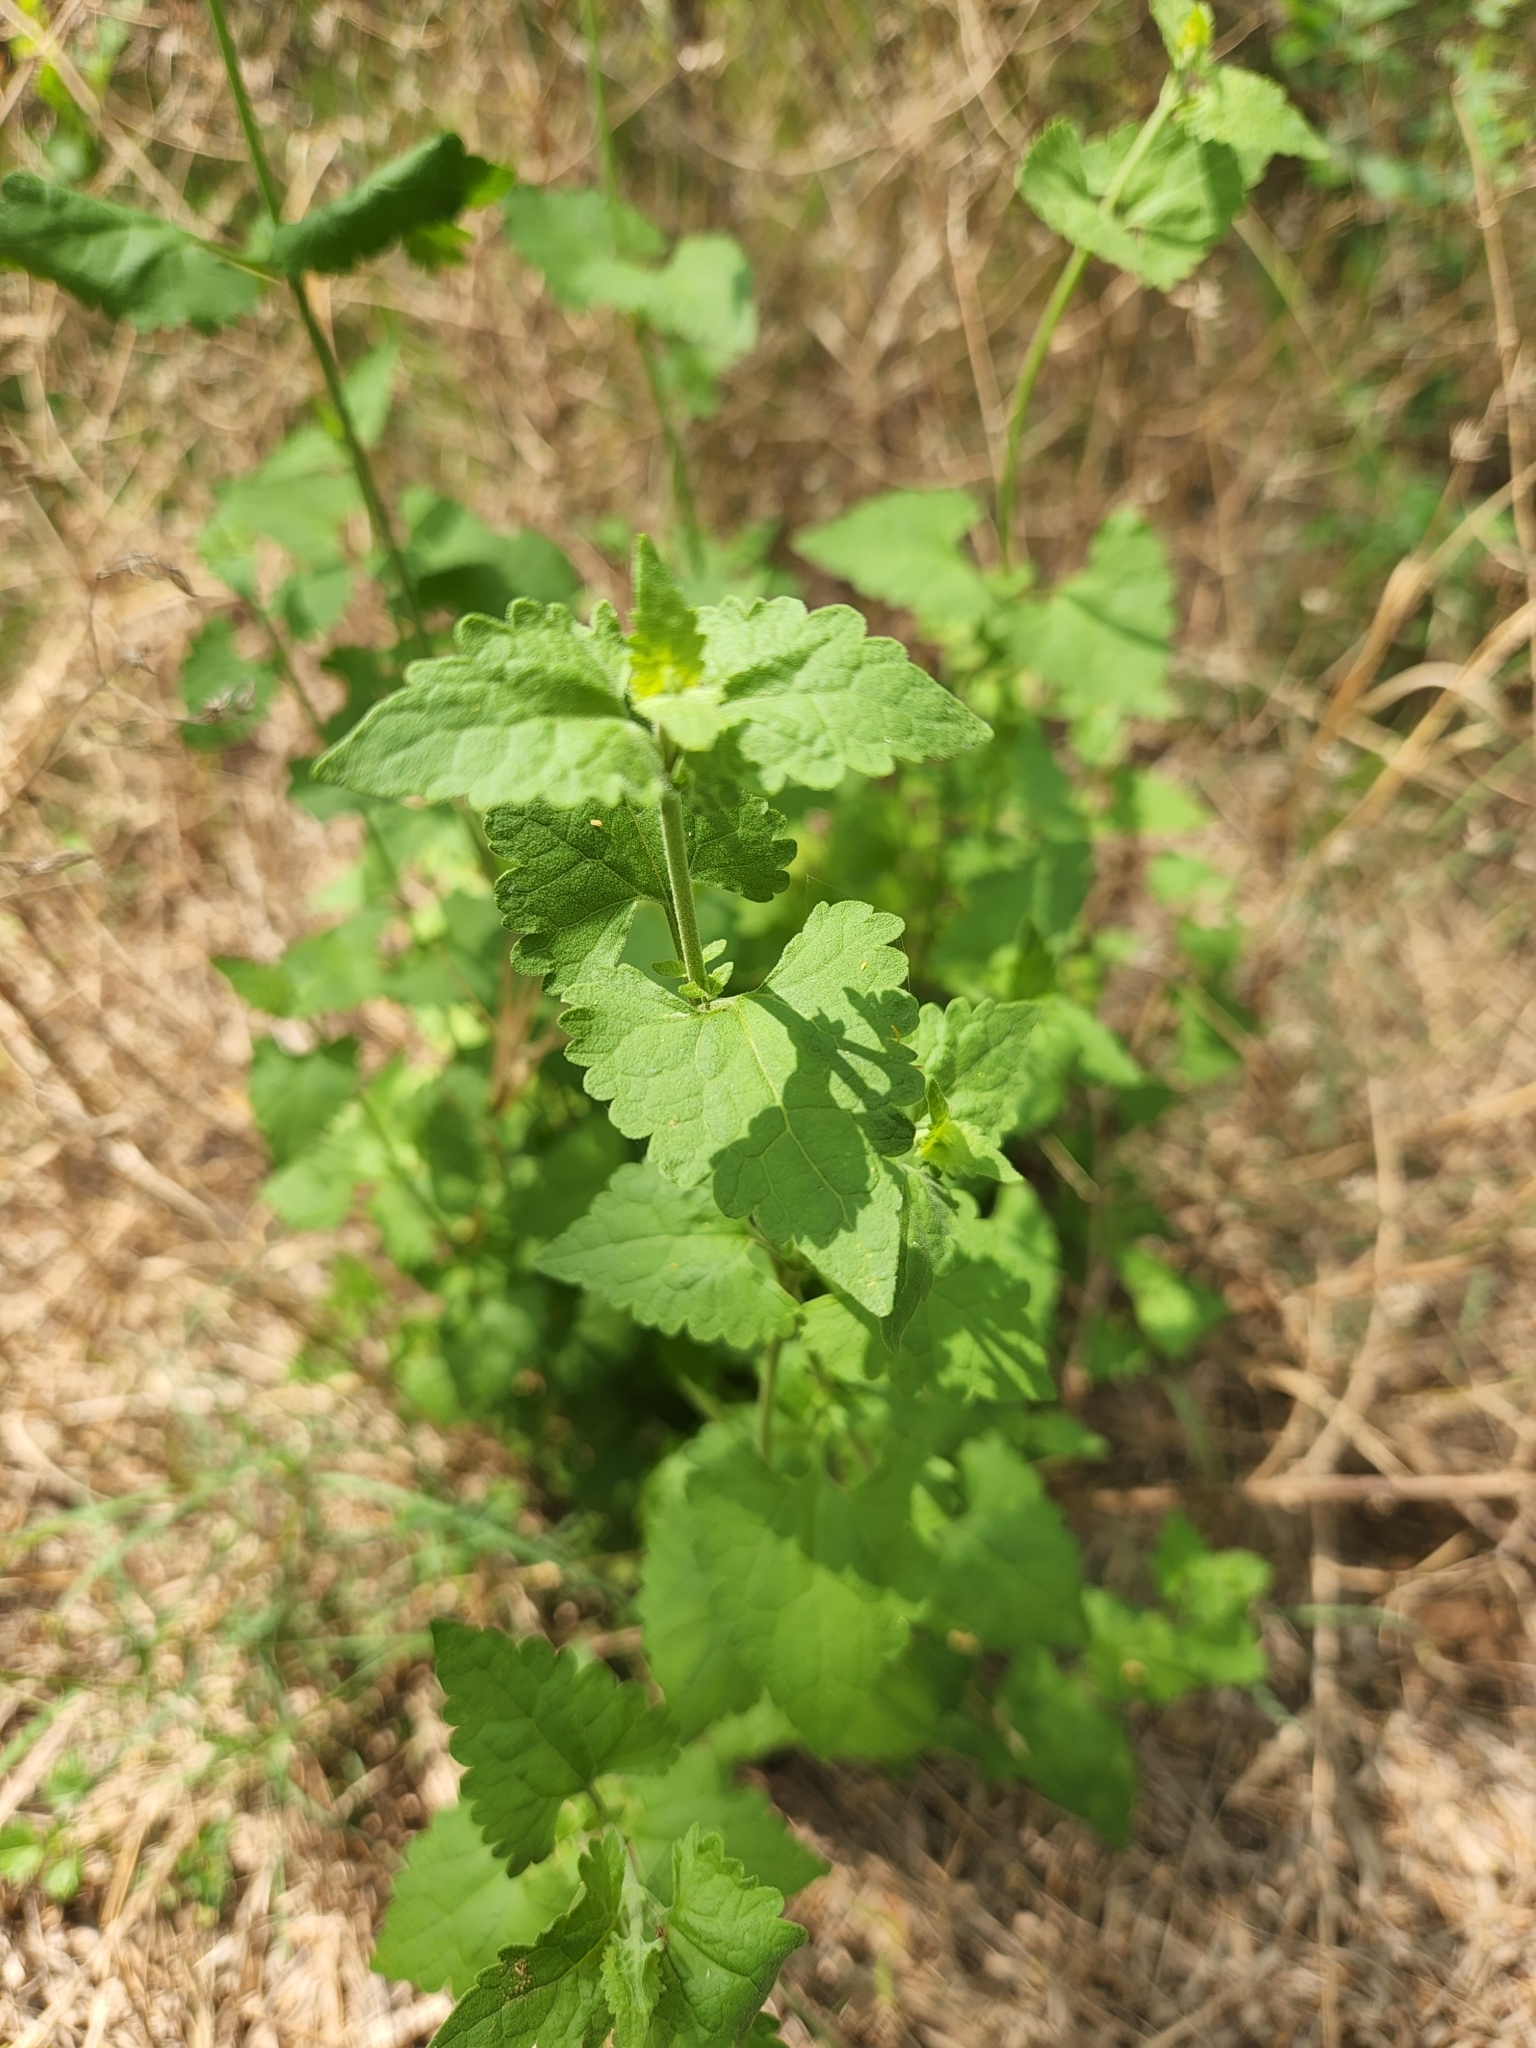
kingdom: Plantae
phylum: Tracheophyta
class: Magnoliopsida
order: Asterales
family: Asteraceae
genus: Fleischmannia
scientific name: Fleischmannia incarnata
